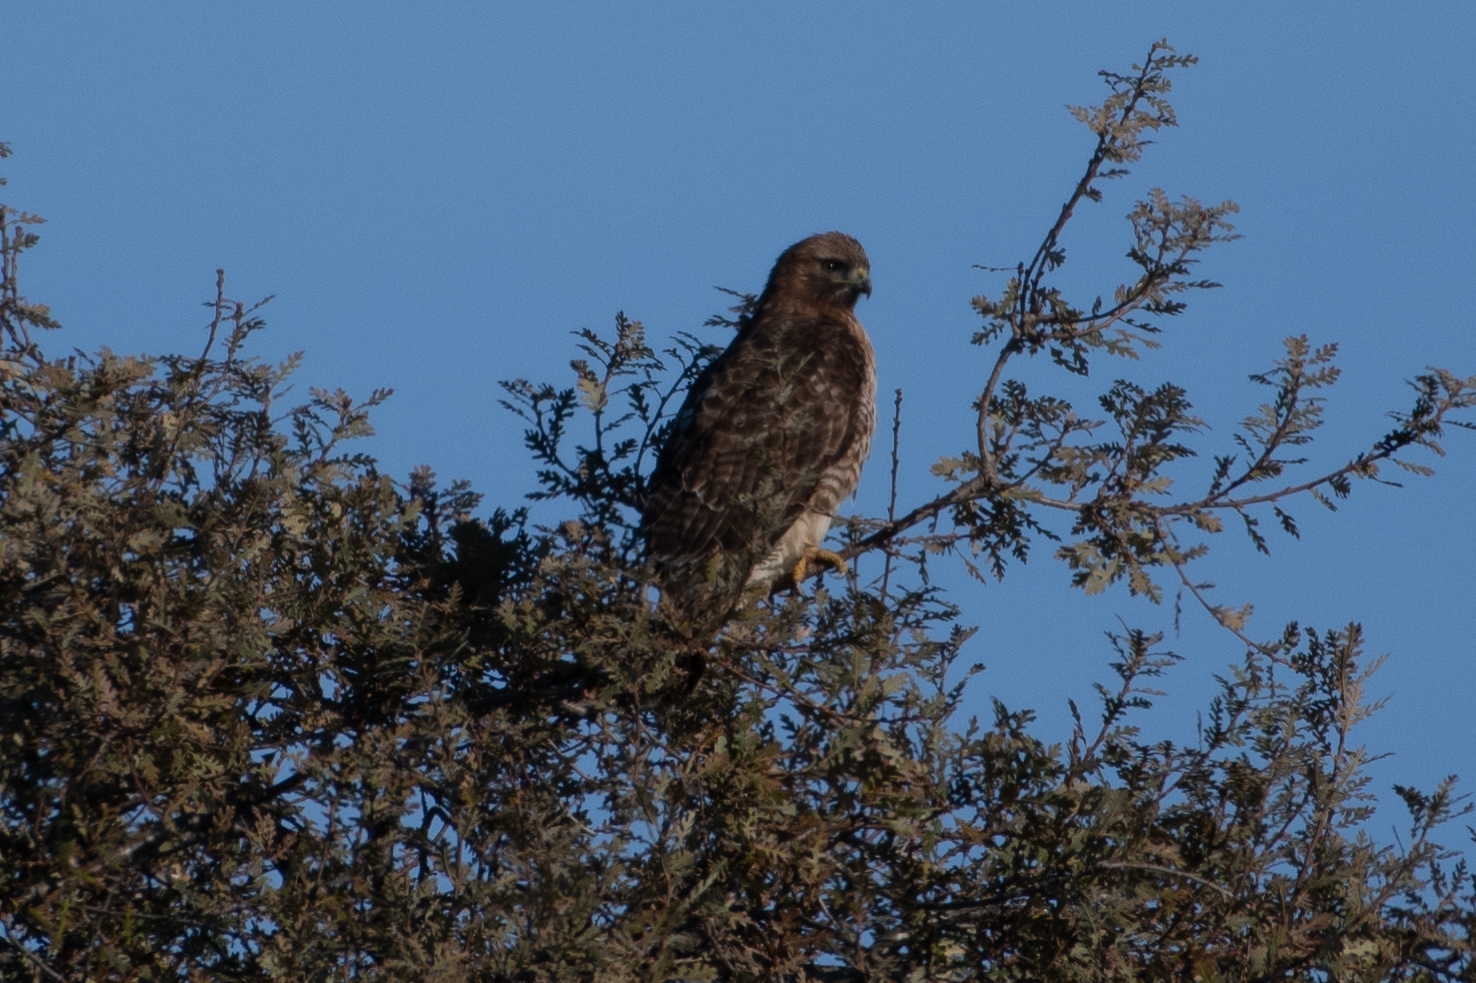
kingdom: Animalia
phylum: Chordata
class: Aves
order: Accipitriformes
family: Accipitridae
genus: Buteo
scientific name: Buteo jamaicensis
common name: Red-tailed hawk
